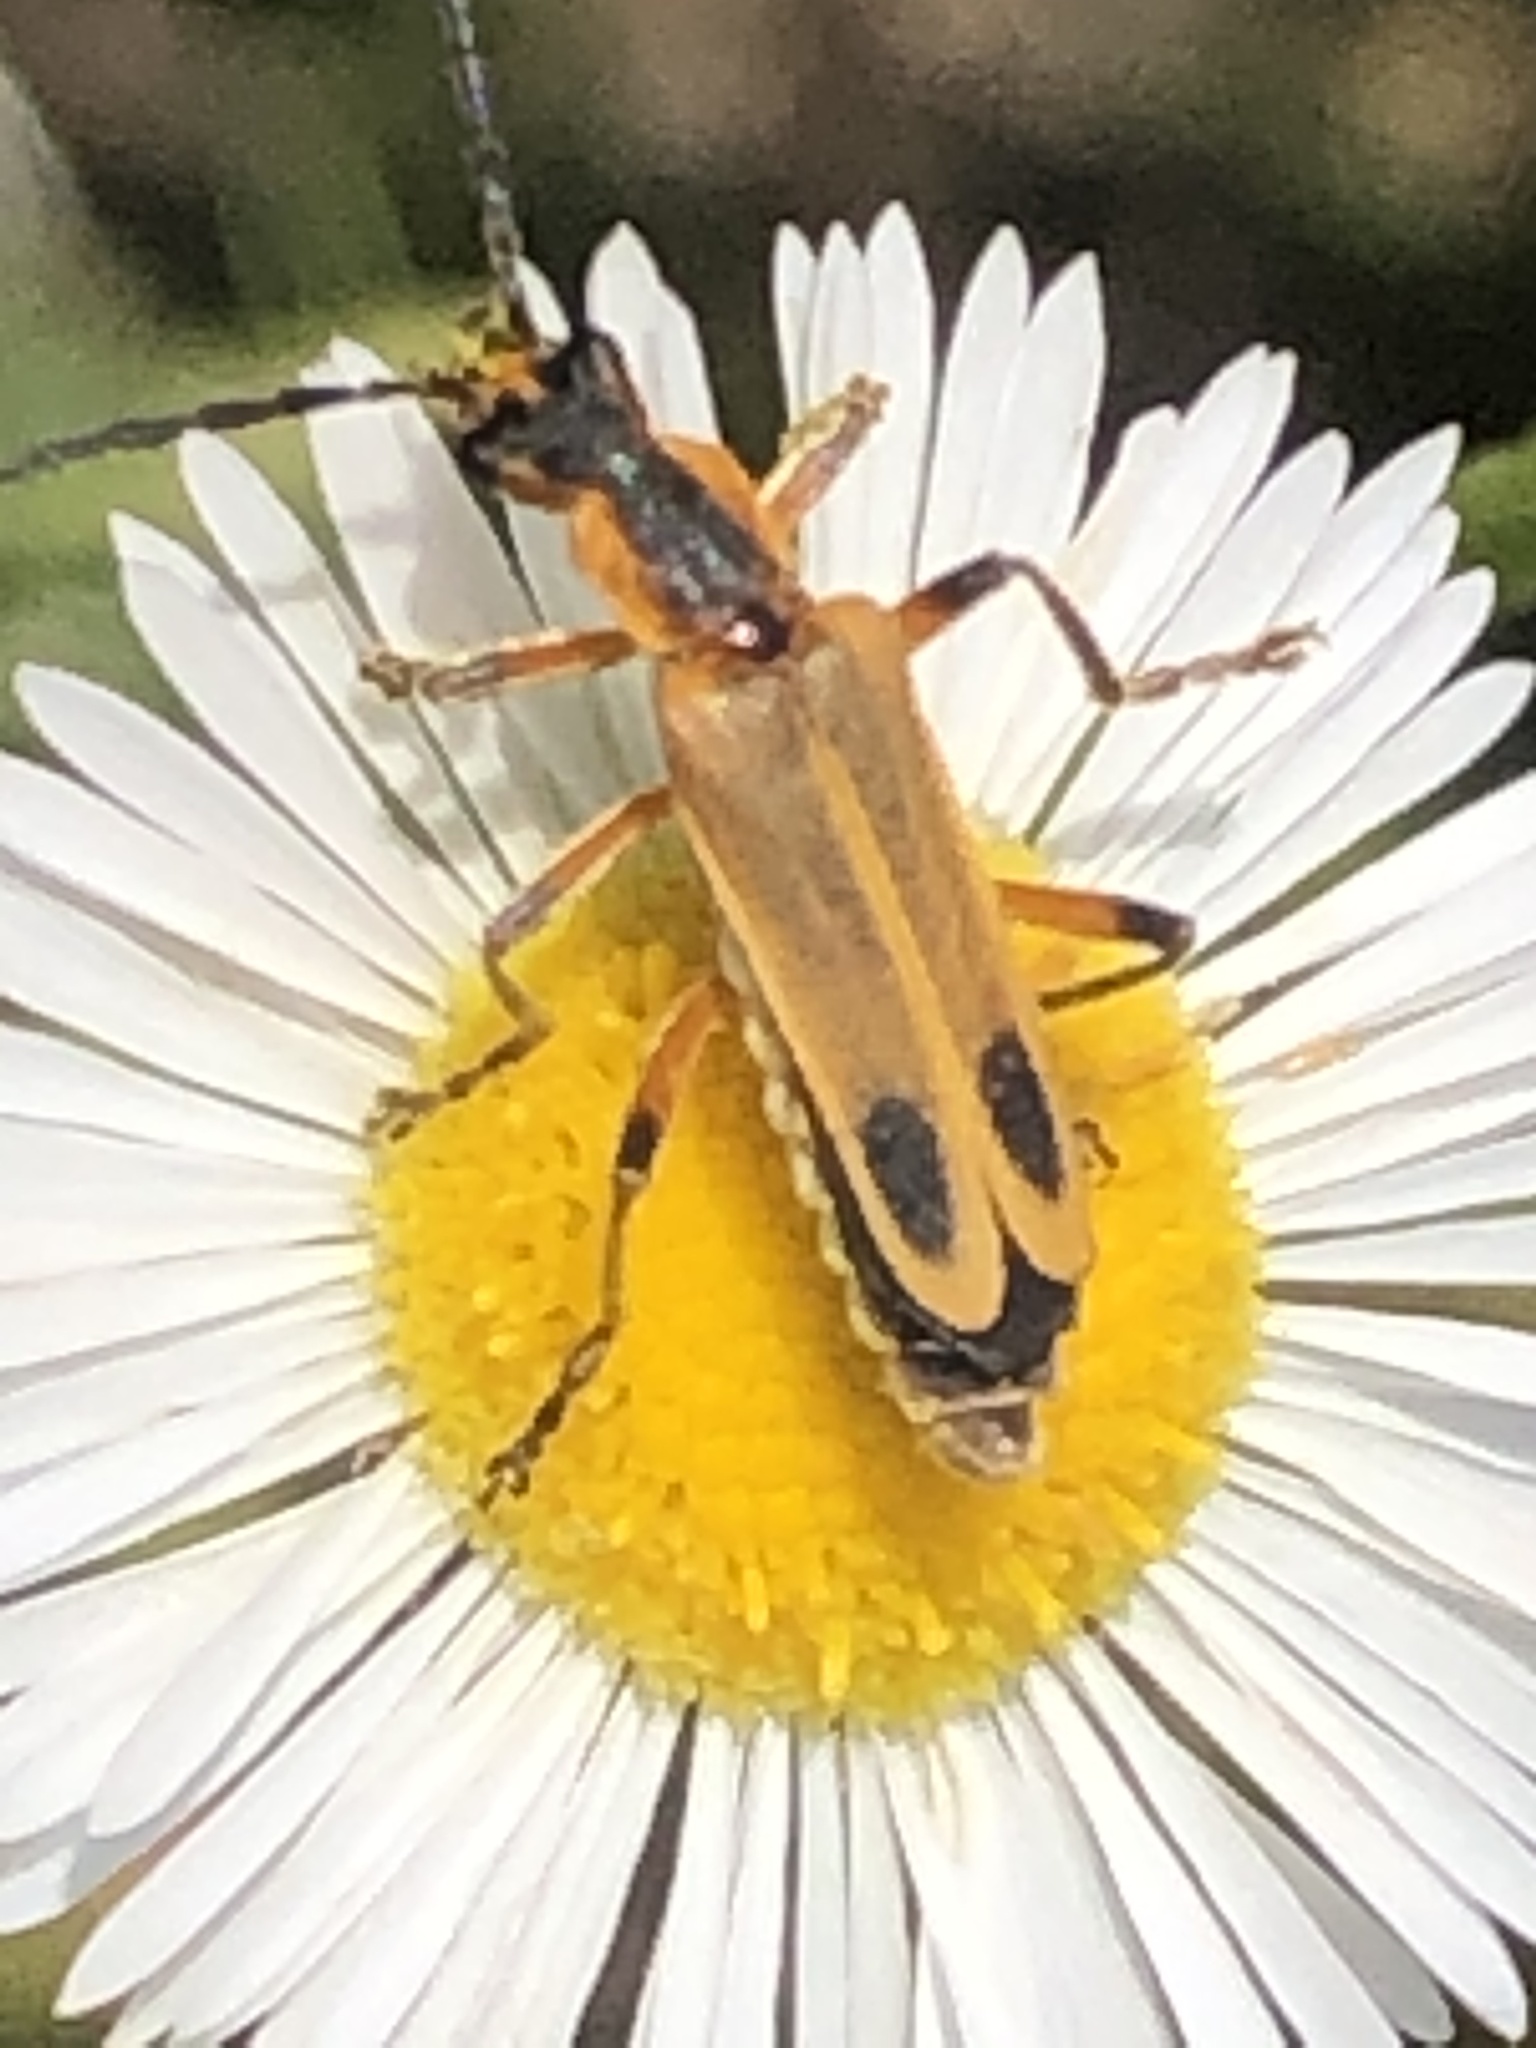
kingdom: Animalia
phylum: Arthropoda
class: Insecta
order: Coleoptera
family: Cantharidae
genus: Chauliognathus
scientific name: Chauliognathus marginatus
